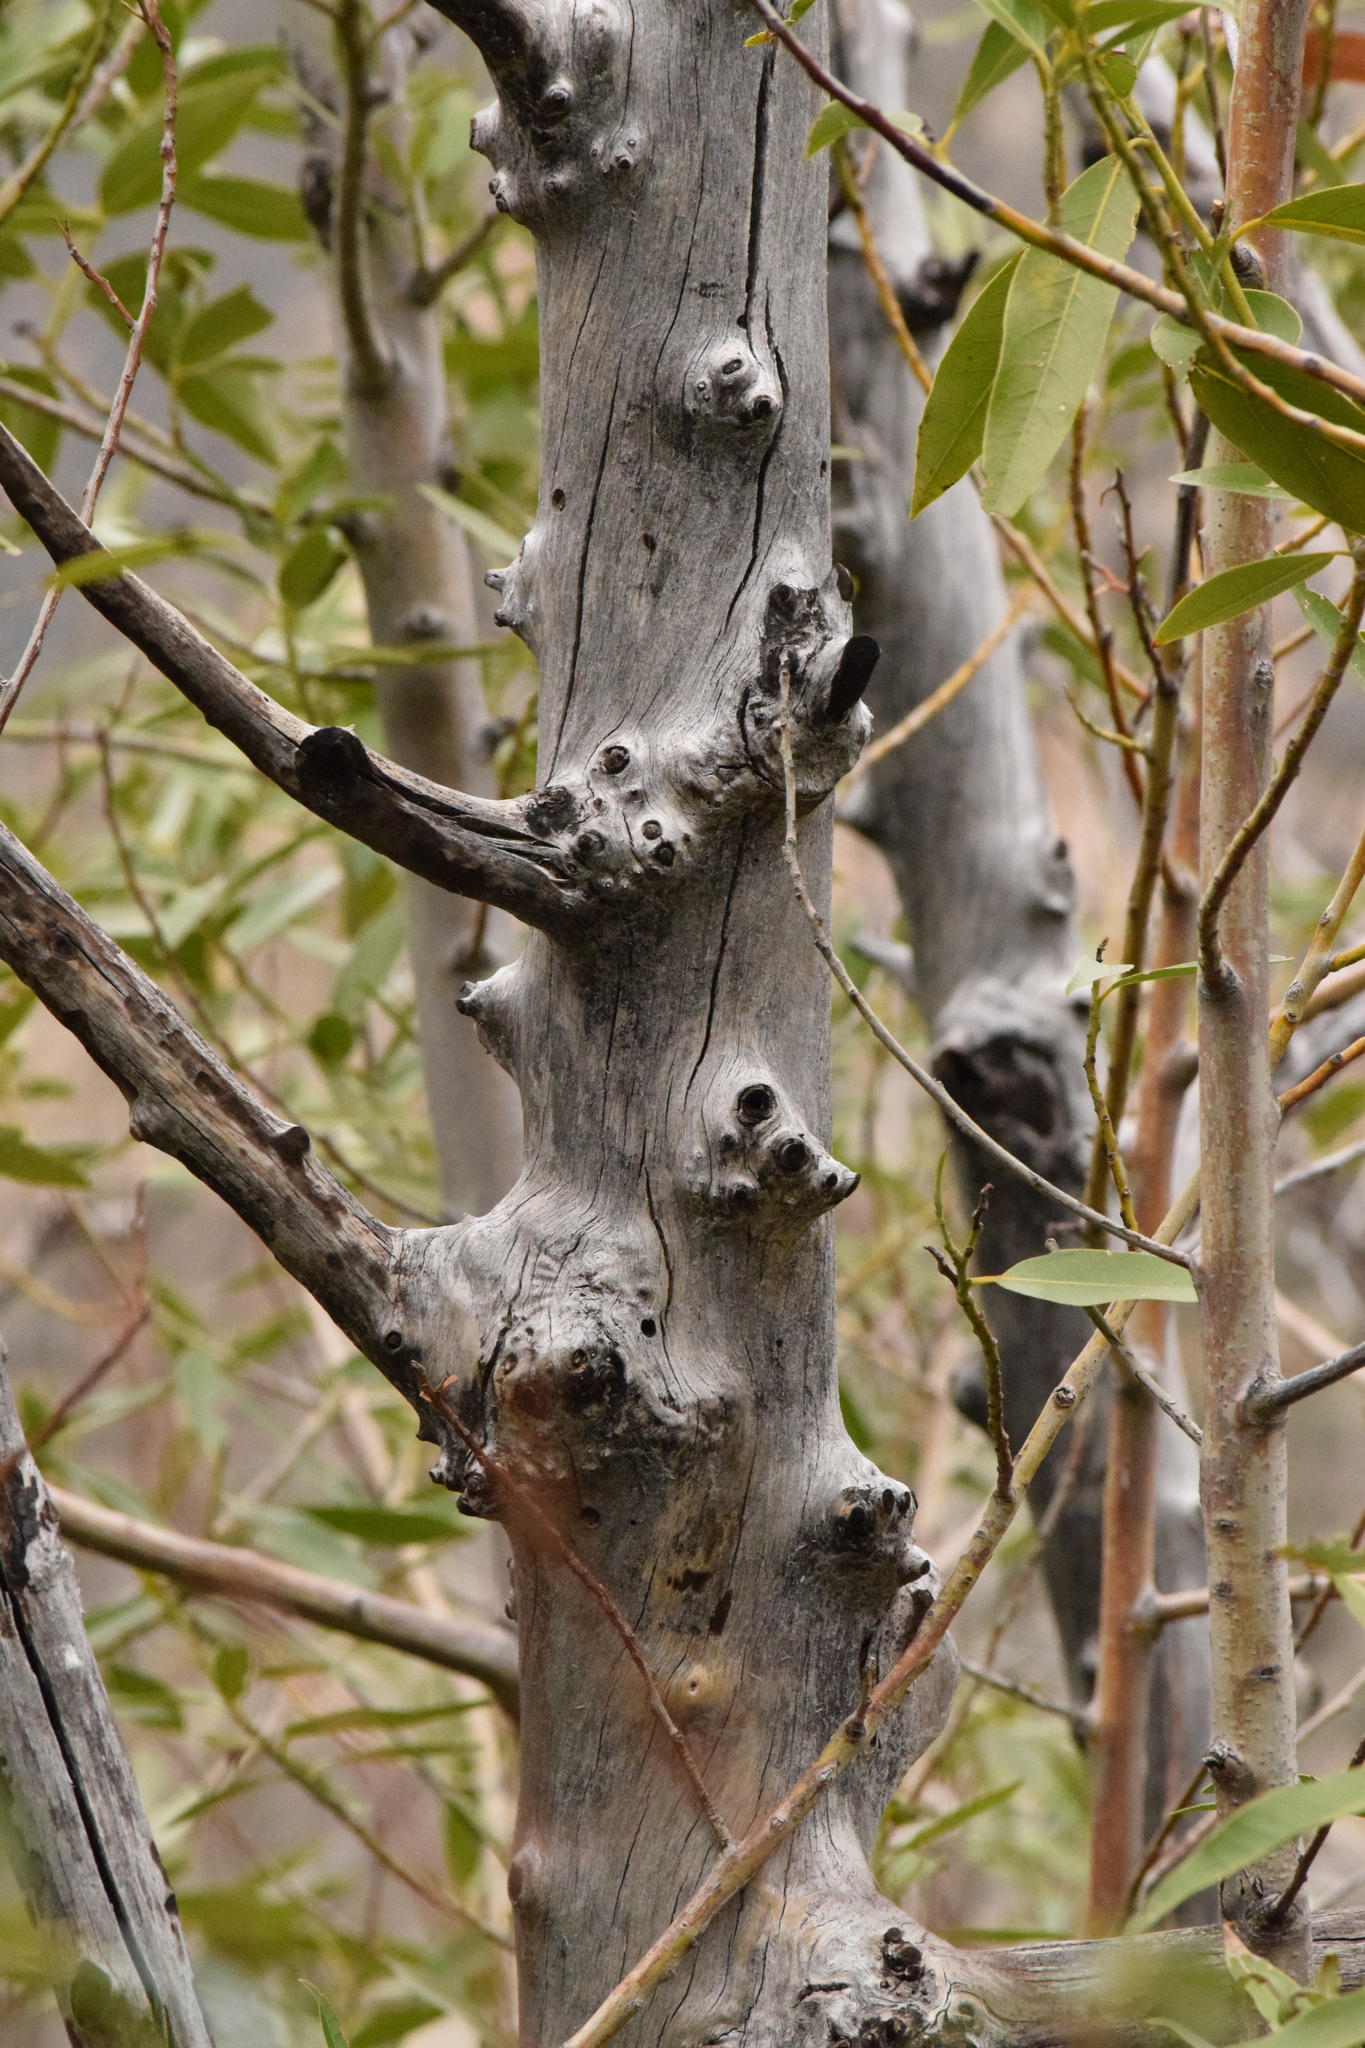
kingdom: Plantae
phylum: Tracheophyta
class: Magnoliopsida
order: Laurales
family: Lauraceae
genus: Umbellularia
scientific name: Umbellularia californica
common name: California bay
